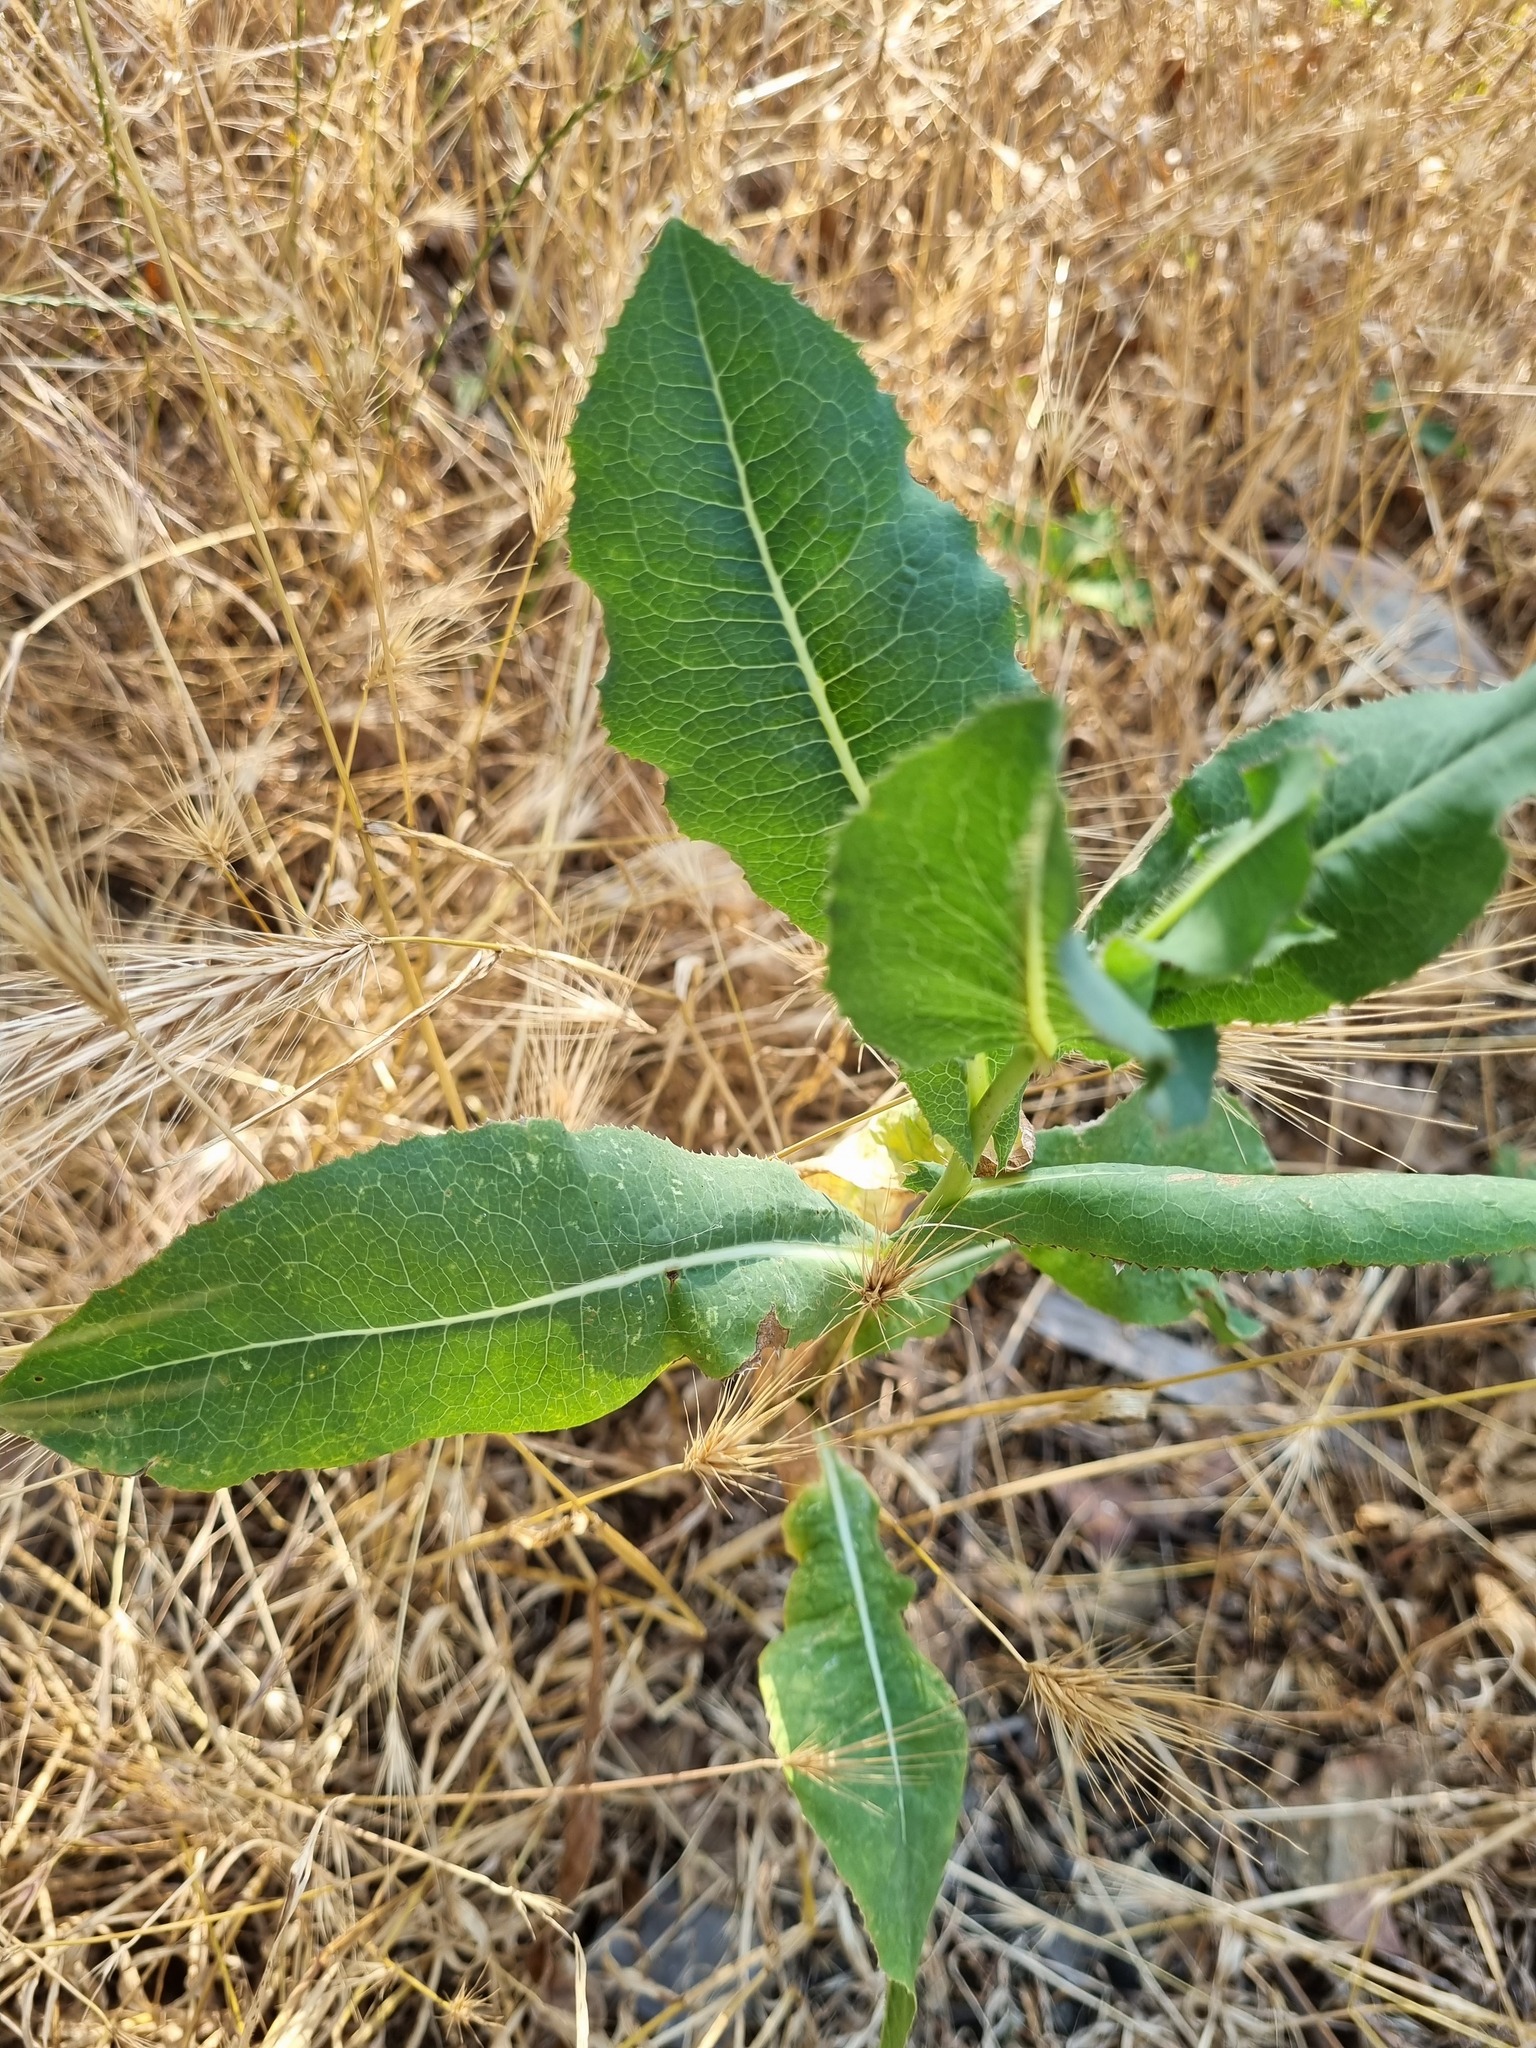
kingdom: Plantae
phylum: Tracheophyta
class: Magnoliopsida
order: Asterales
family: Asteraceae
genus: Lactuca
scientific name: Lactuca serriola
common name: Prickly lettuce
